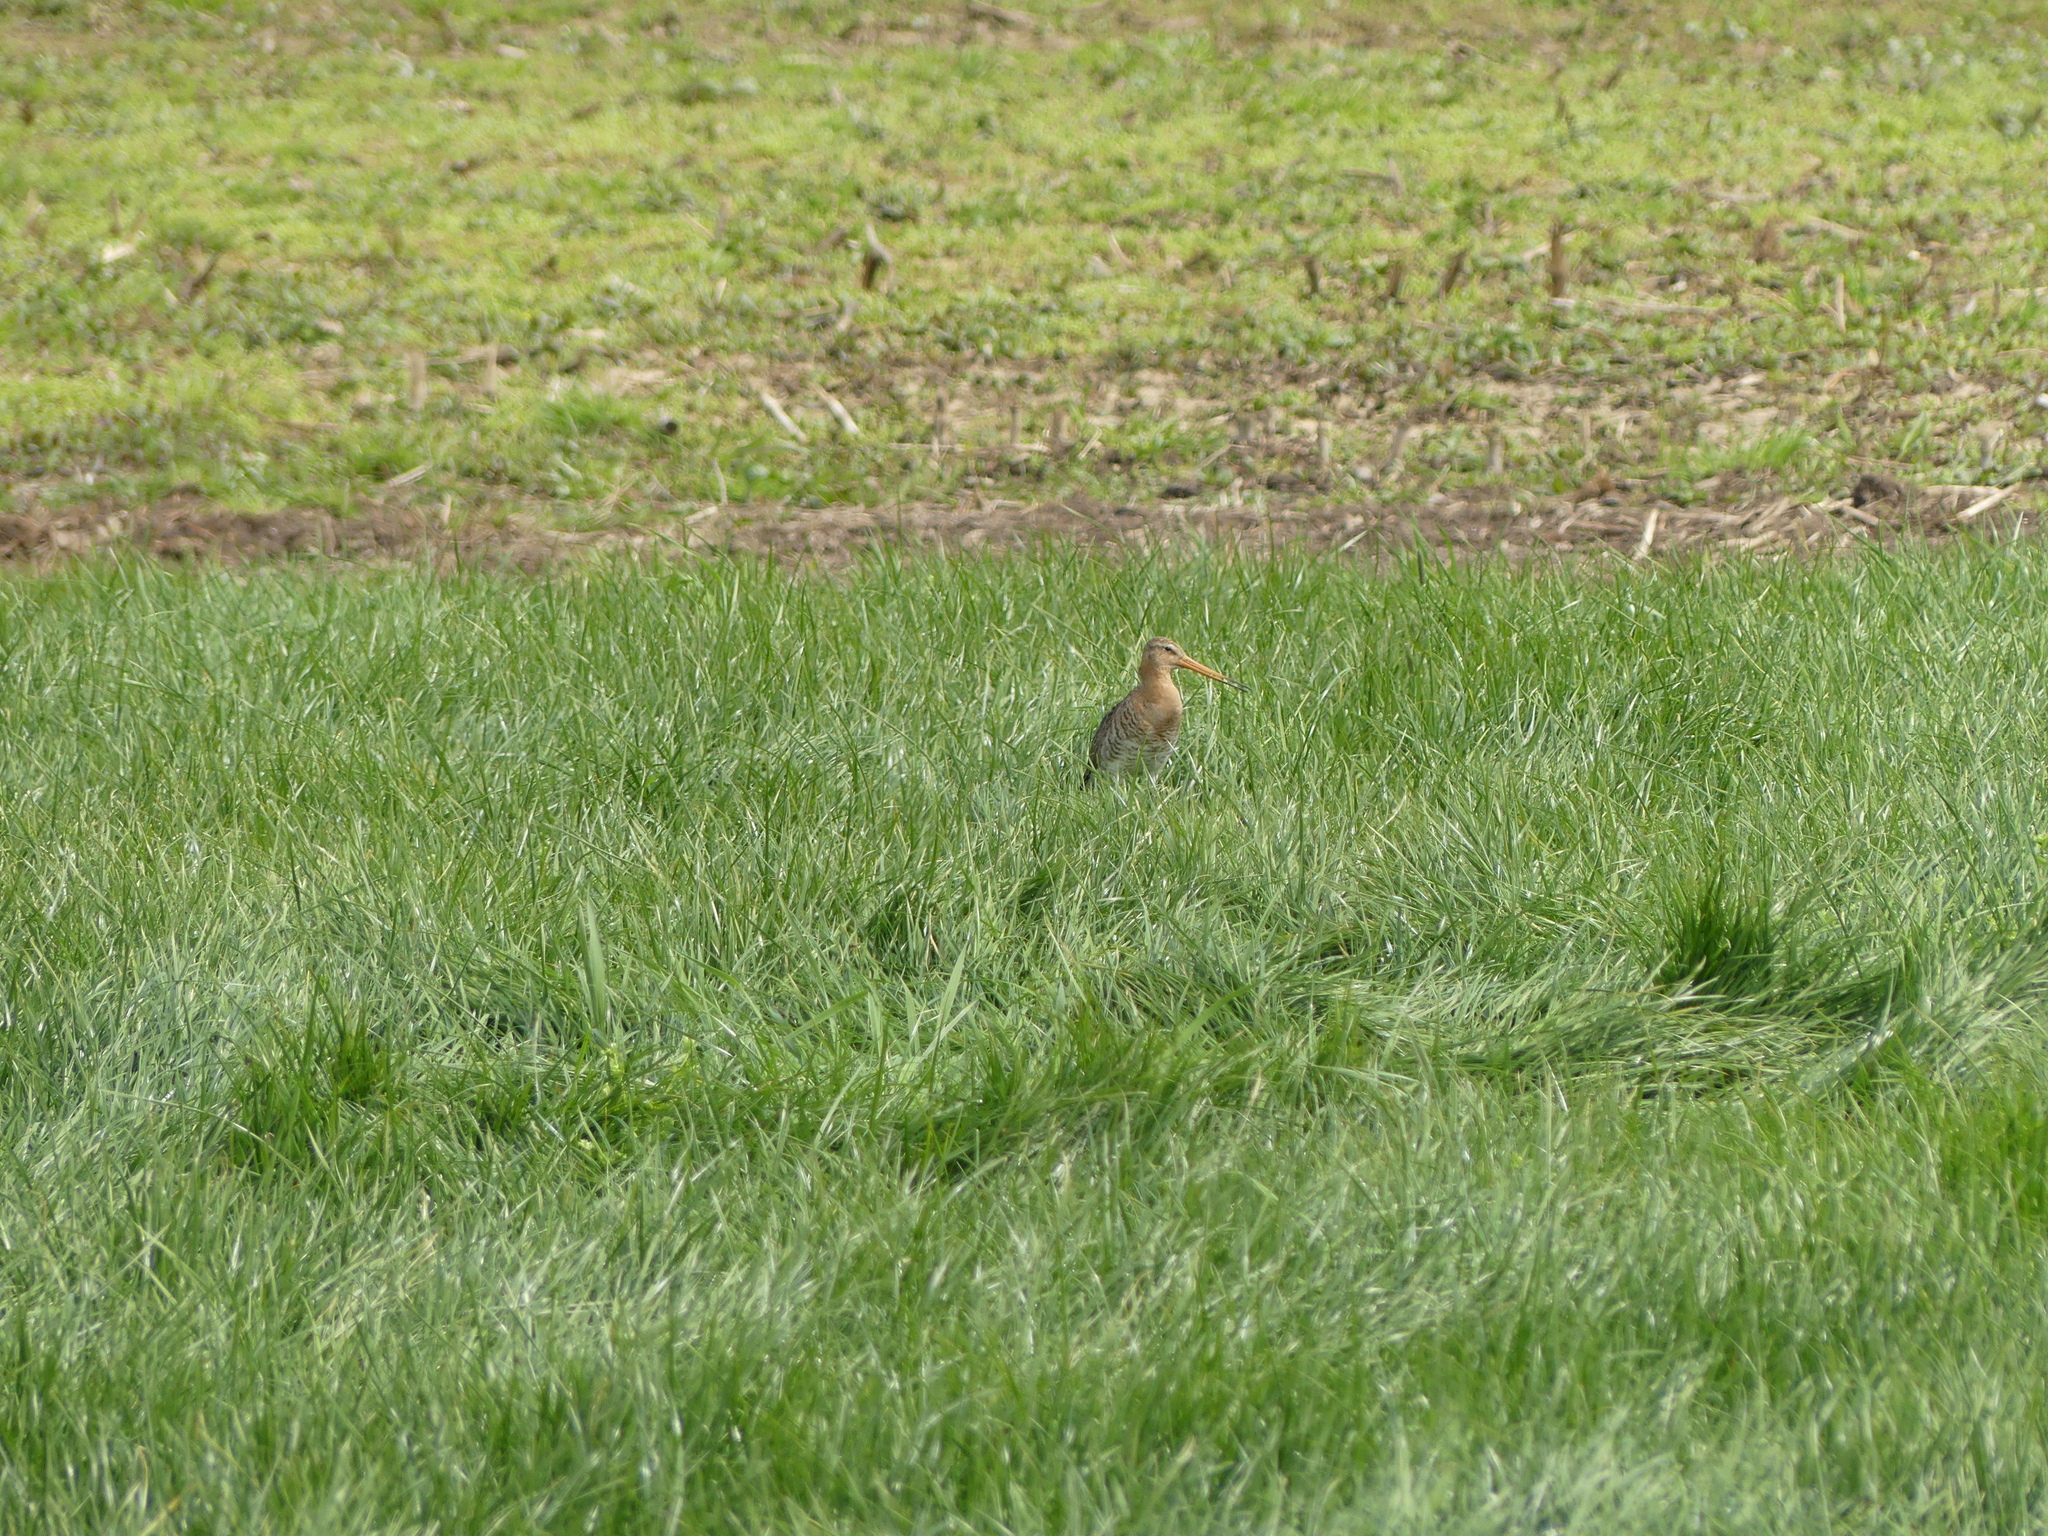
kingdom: Animalia
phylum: Chordata
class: Aves
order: Charadriiformes
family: Scolopacidae
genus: Limosa
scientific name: Limosa limosa
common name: Black-tailed godwit
